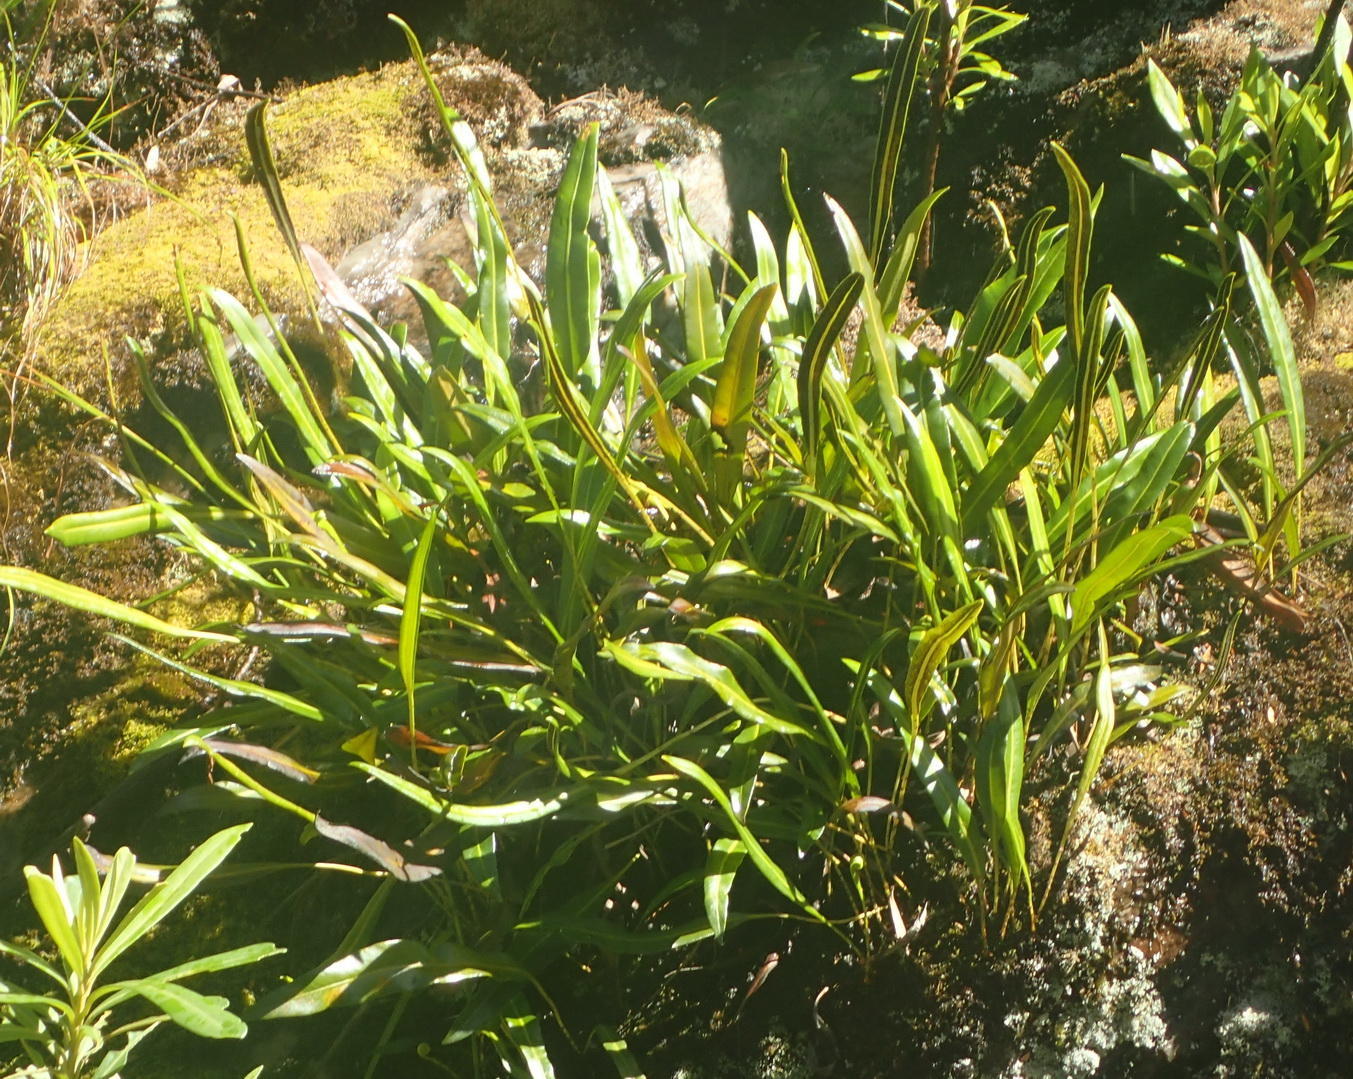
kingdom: Plantae
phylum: Tracheophyta
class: Polypodiopsida
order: Polypodiales
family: Dryopteridaceae
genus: Elaphoglossum
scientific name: Elaphoglossum acrostichoides
